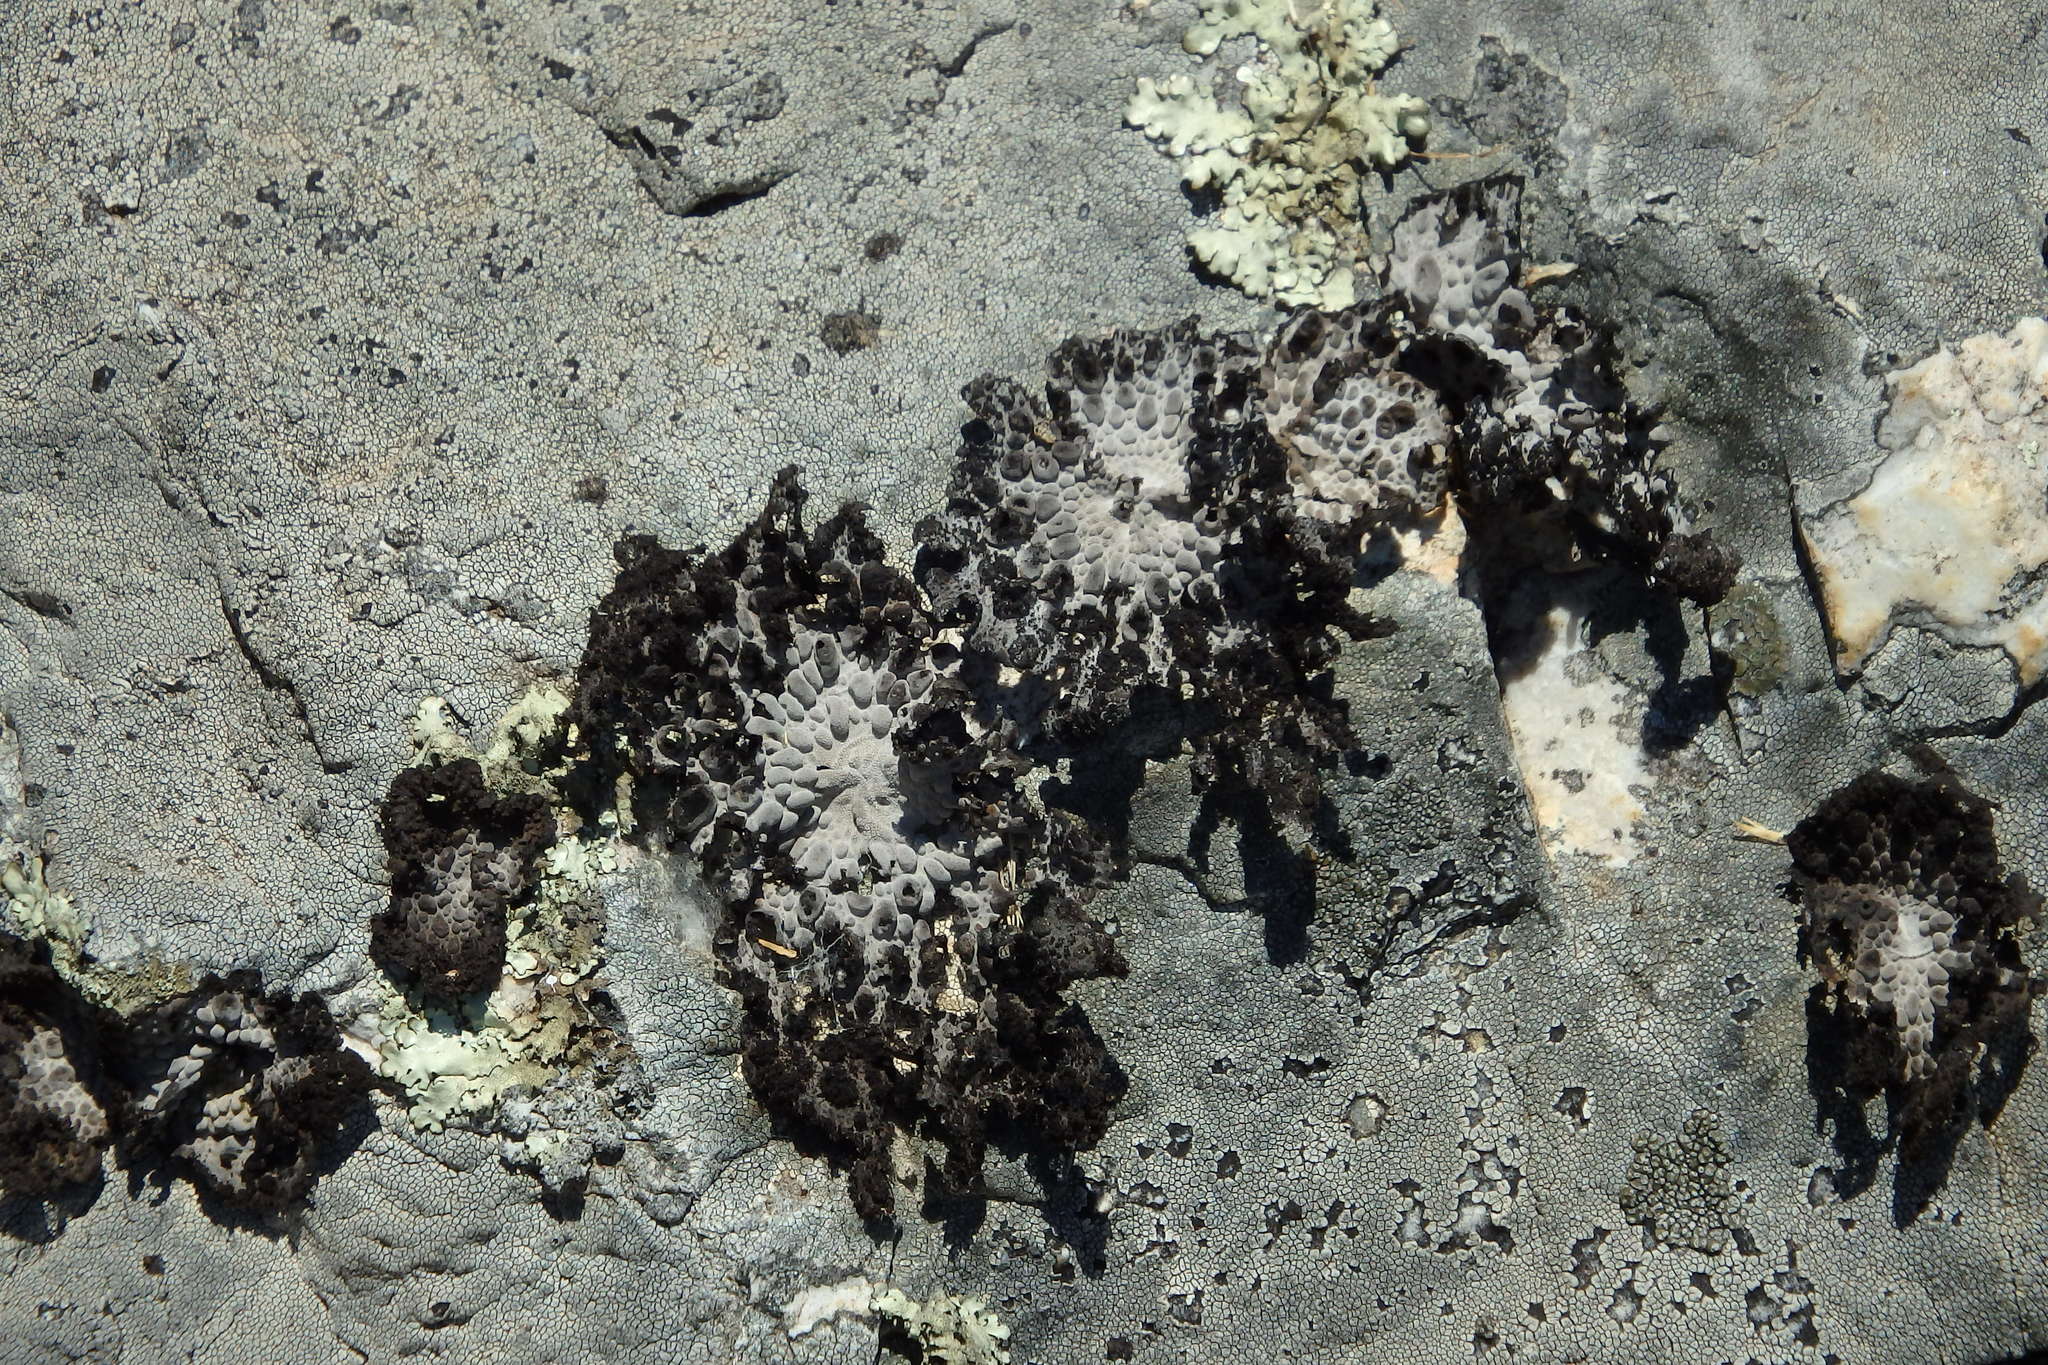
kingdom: Fungi
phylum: Ascomycota
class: Lecanoromycetes
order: Umbilicariales
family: Umbilicariaceae
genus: Lasallia
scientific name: Lasallia pustulata
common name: Blistered toadskin lichen
